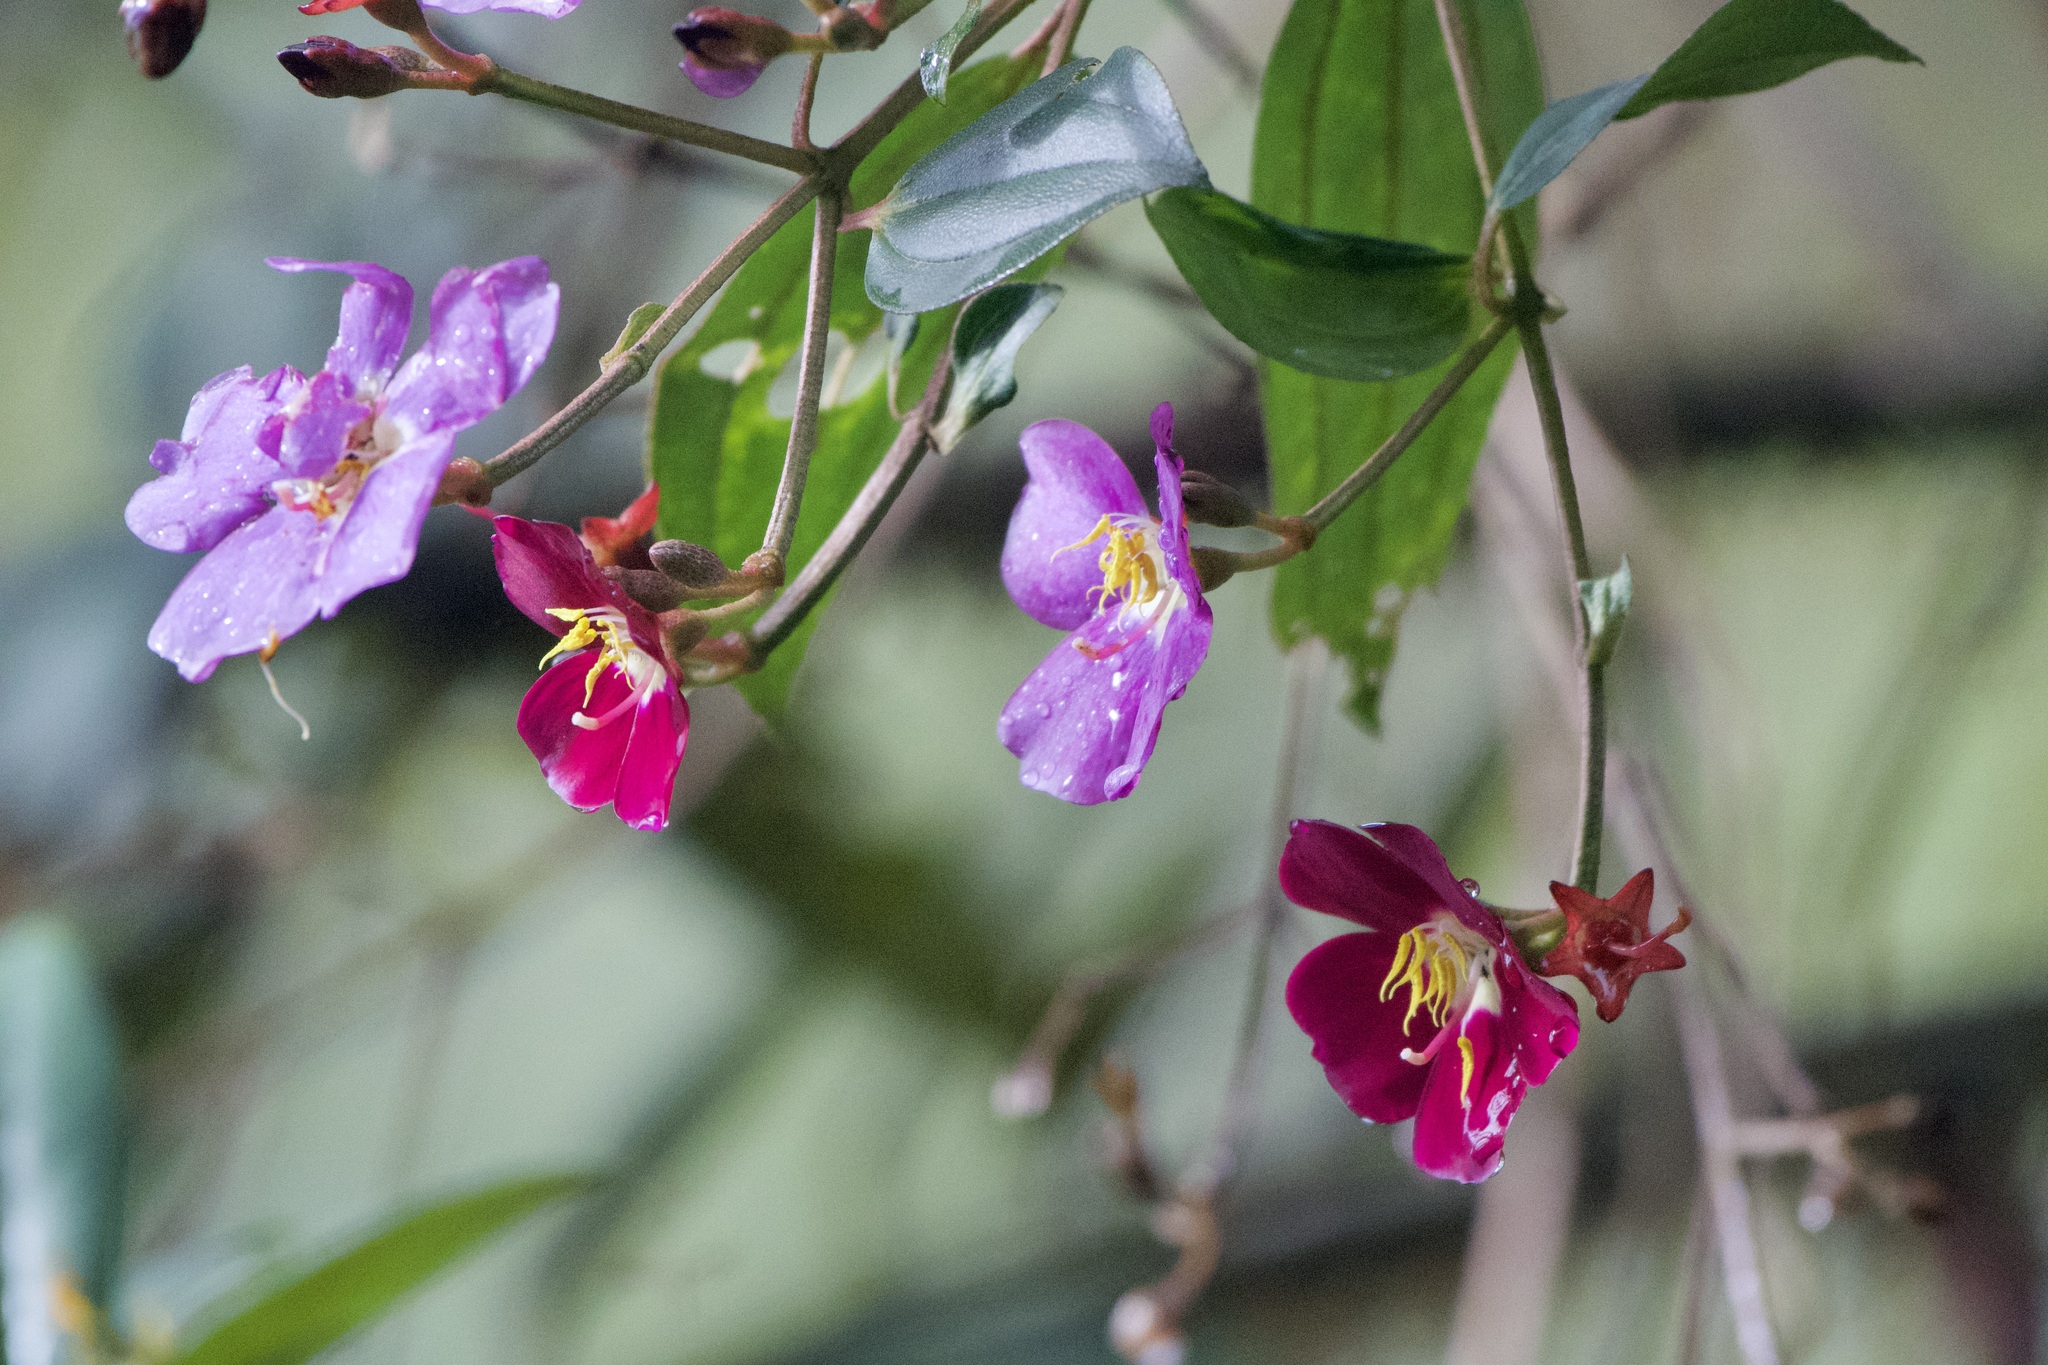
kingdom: Plantae
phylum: Tracheophyta
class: Magnoliopsida
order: Myrtales
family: Melastomataceae
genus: Andesanthus
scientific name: Andesanthus lepidotus
